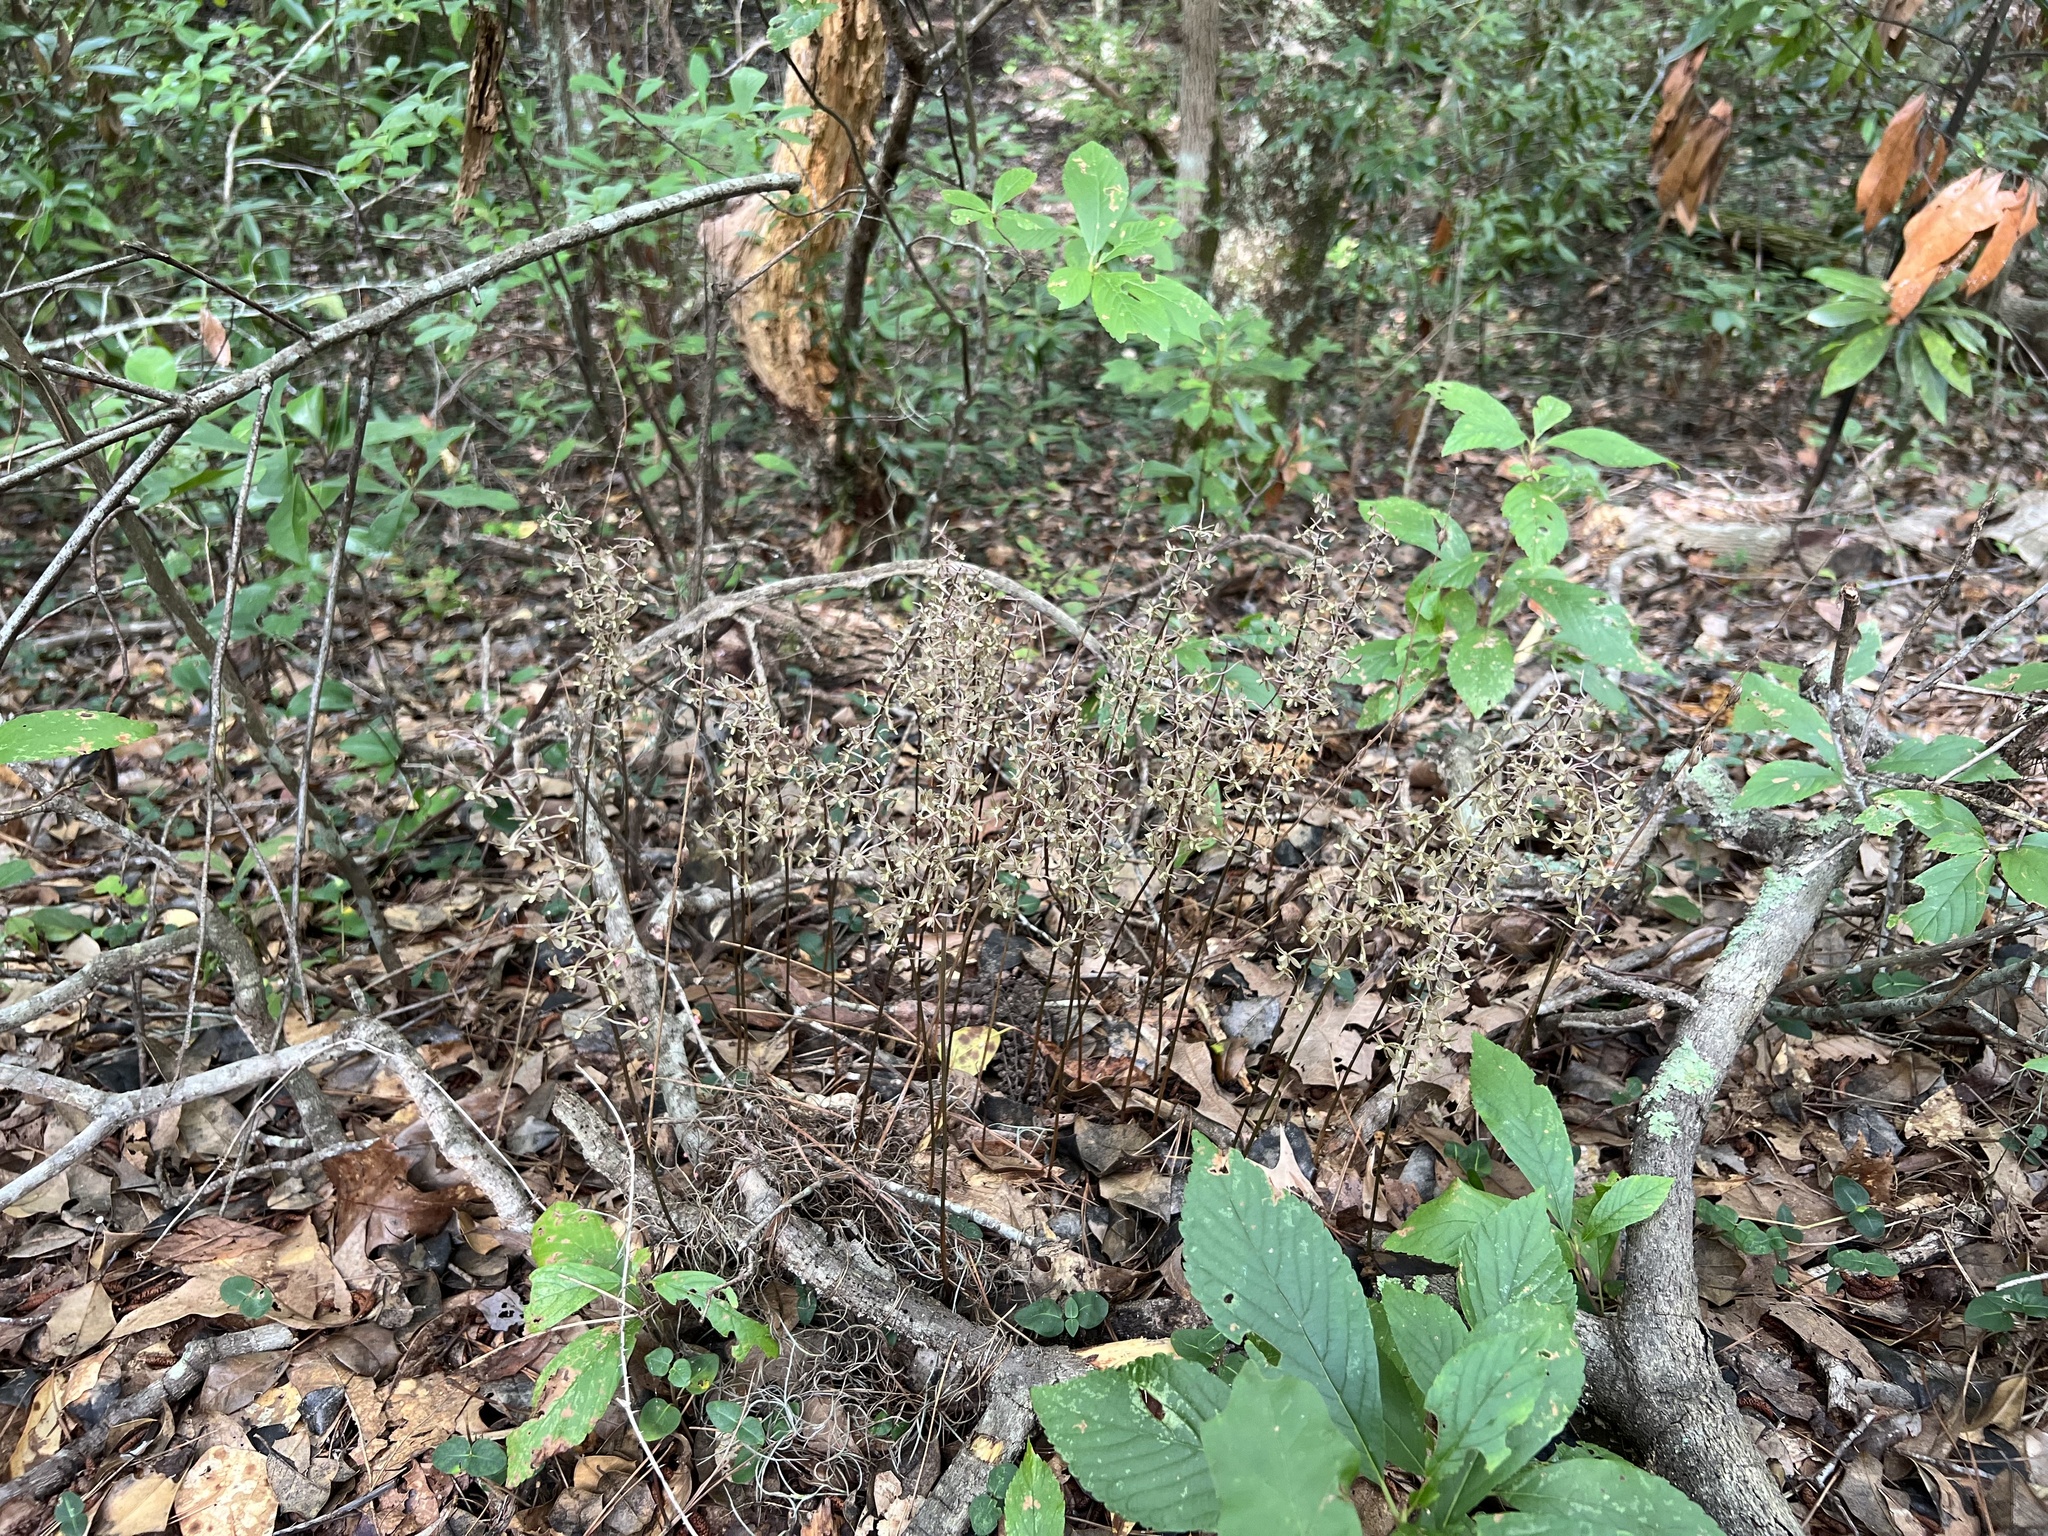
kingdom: Plantae
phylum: Tracheophyta
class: Liliopsida
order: Asparagales
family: Orchidaceae
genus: Tipularia
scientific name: Tipularia discolor
